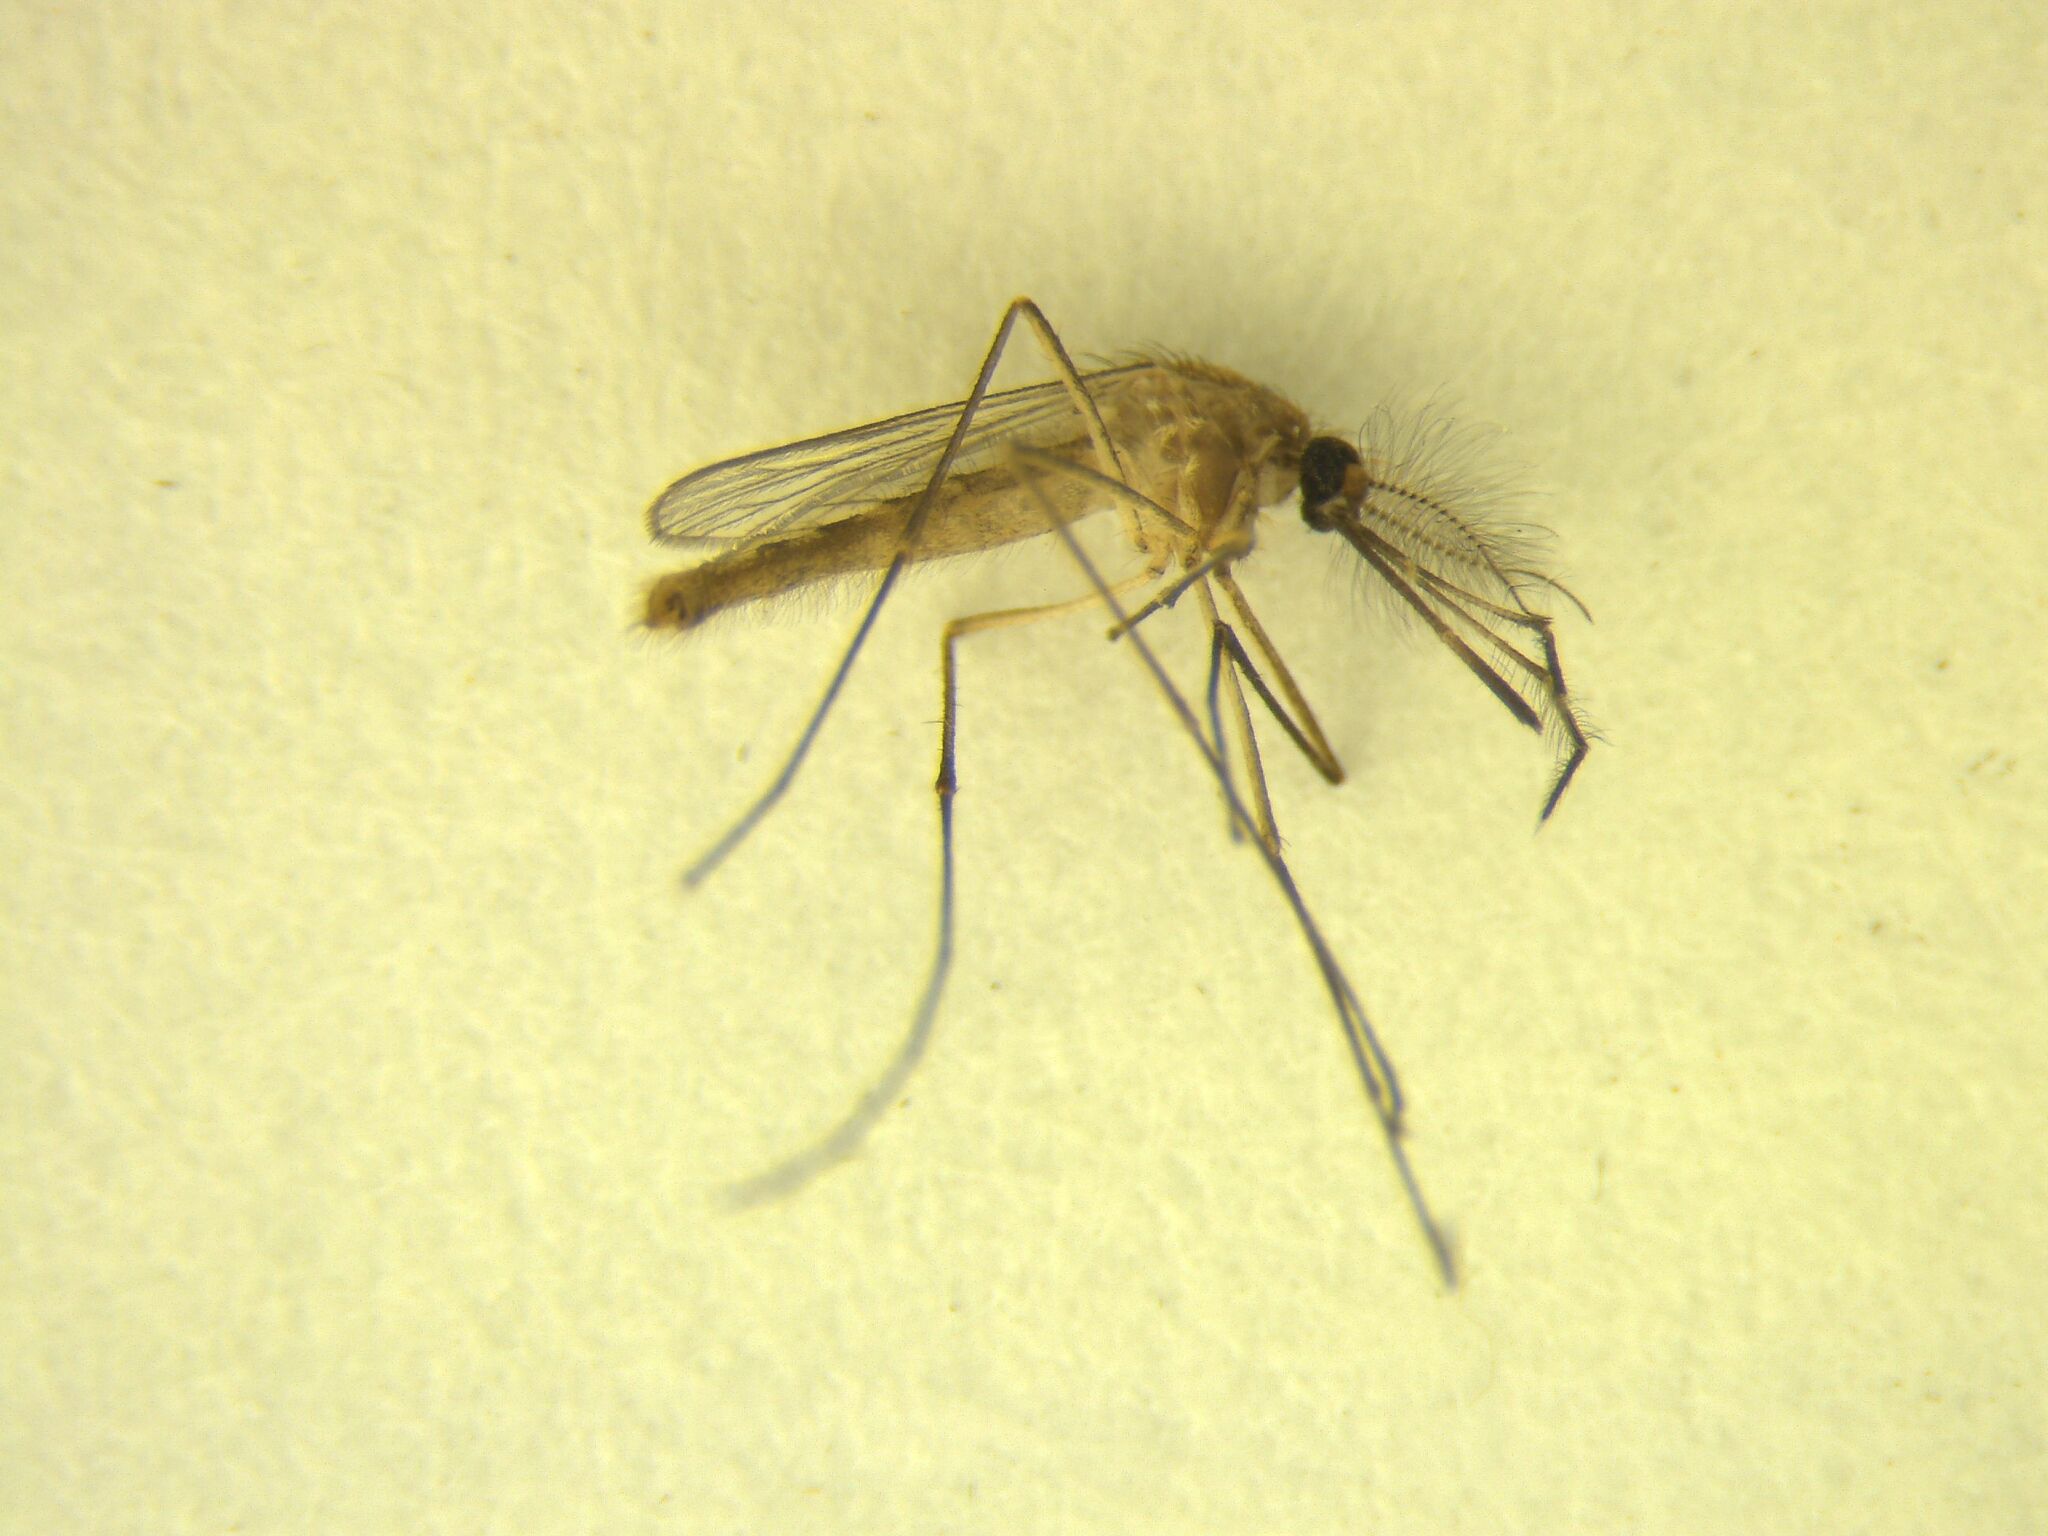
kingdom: Animalia
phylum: Arthropoda
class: Insecta
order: Diptera
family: Culicidae
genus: Culex
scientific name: Culex quinquefasciatus
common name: Southern house mosquito
